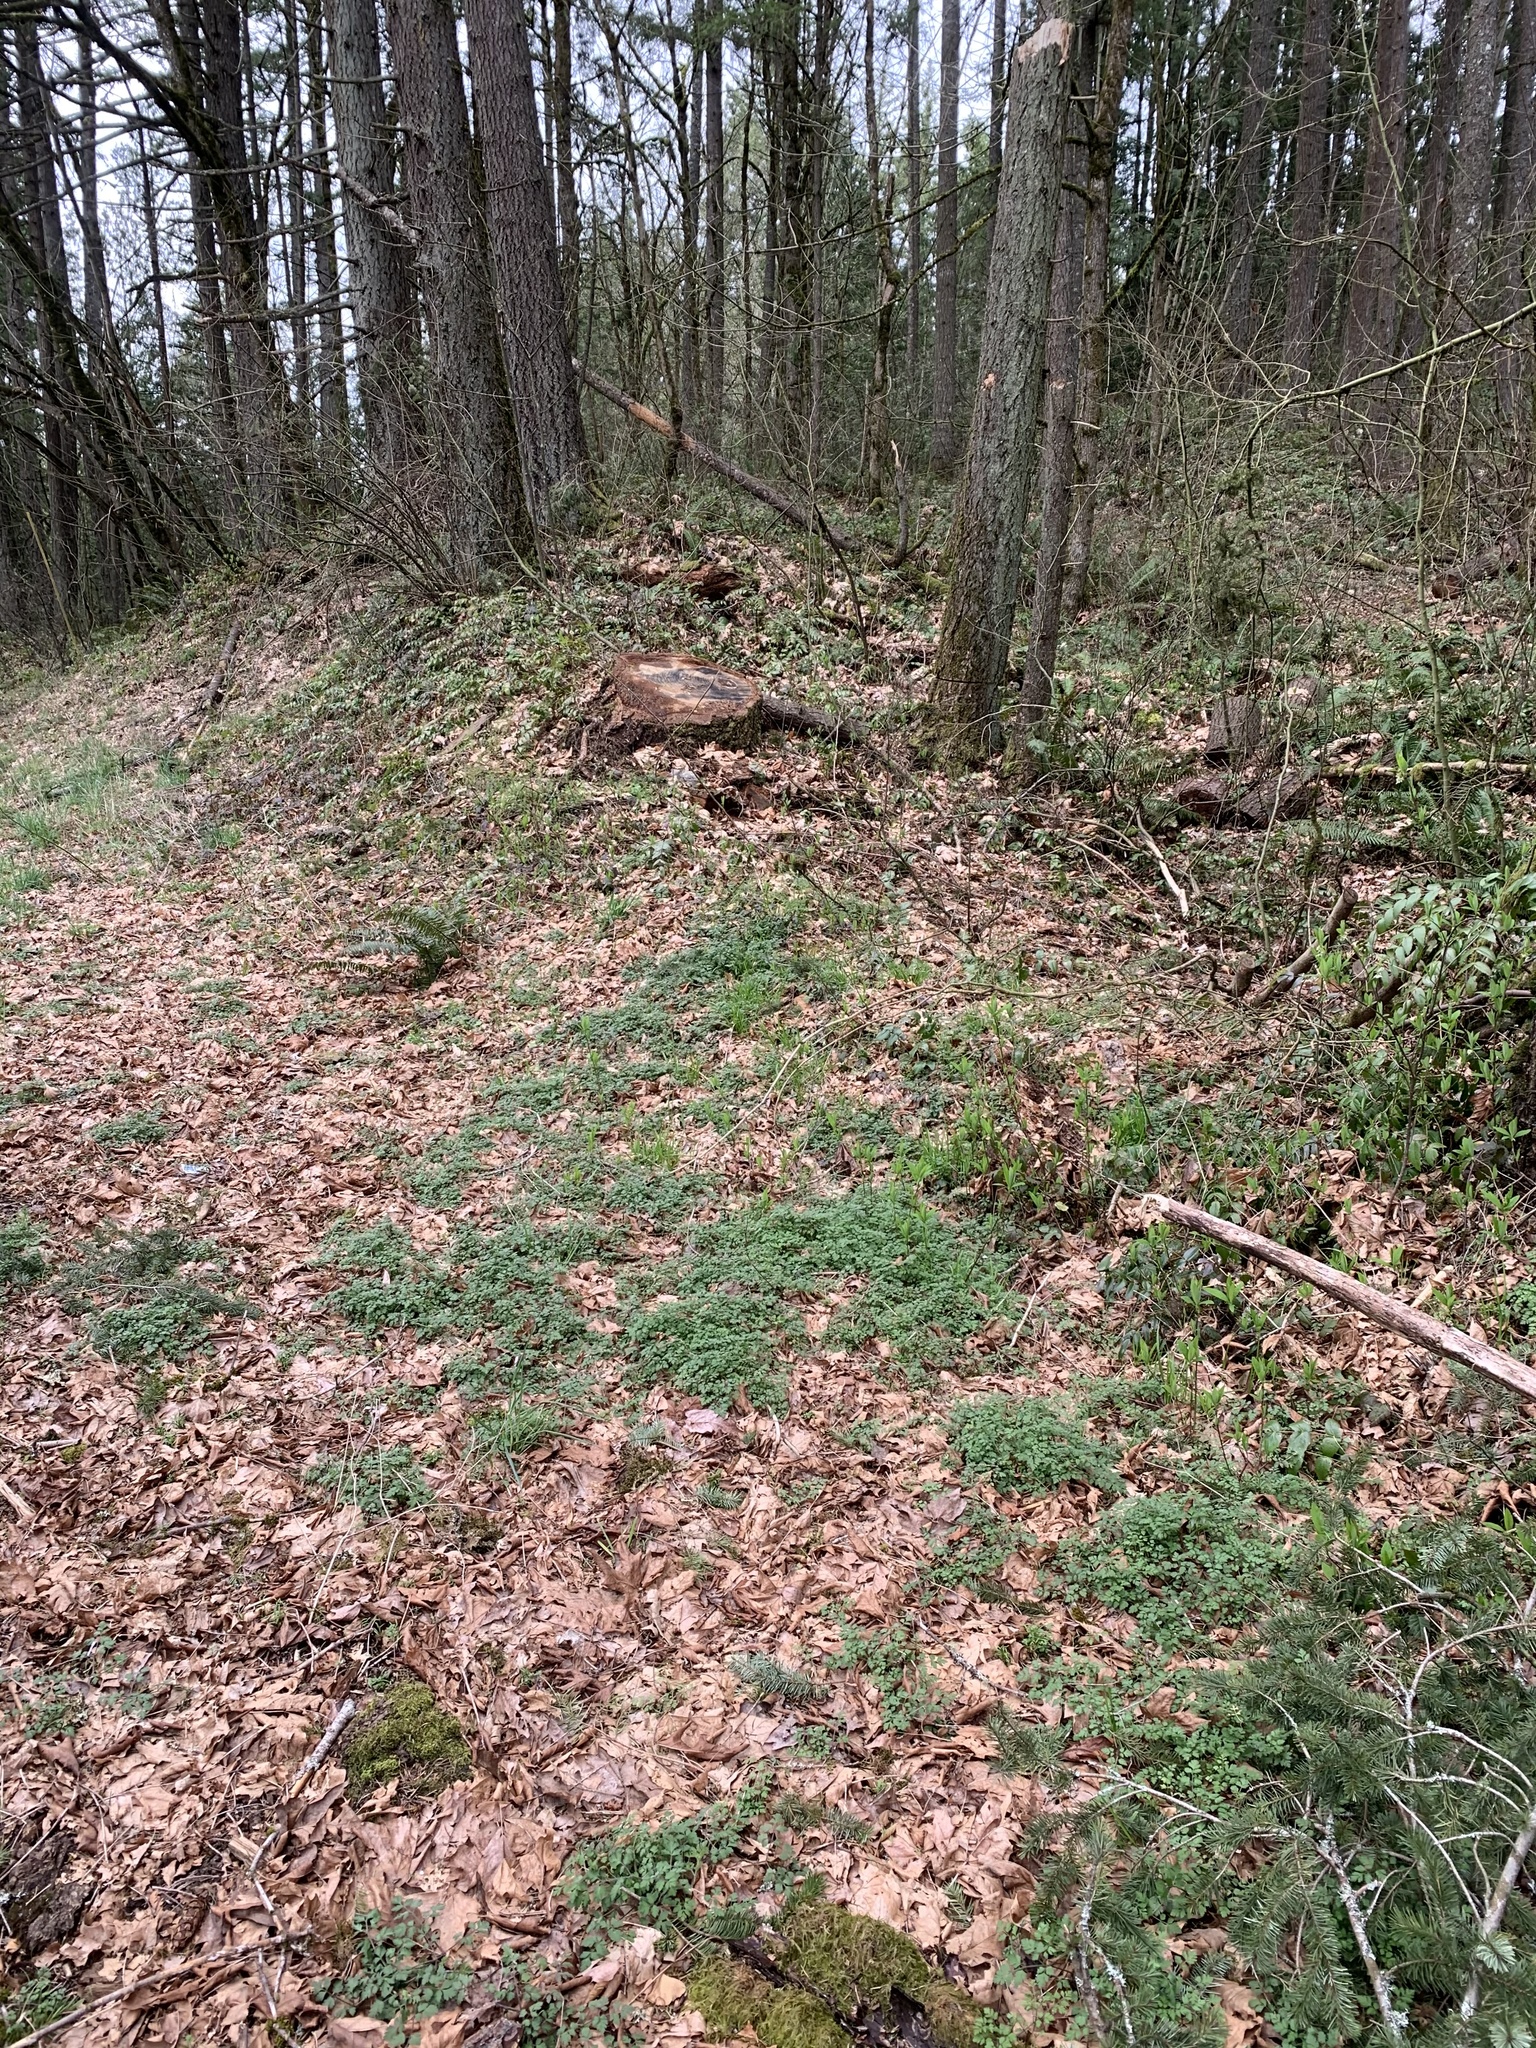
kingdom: Plantae
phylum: Tracheophyta
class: Magnoliopsida
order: Apiales
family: Apiaceae
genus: Chaerophyllum
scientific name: Chaerophyllum temulum
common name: Rough chervil
